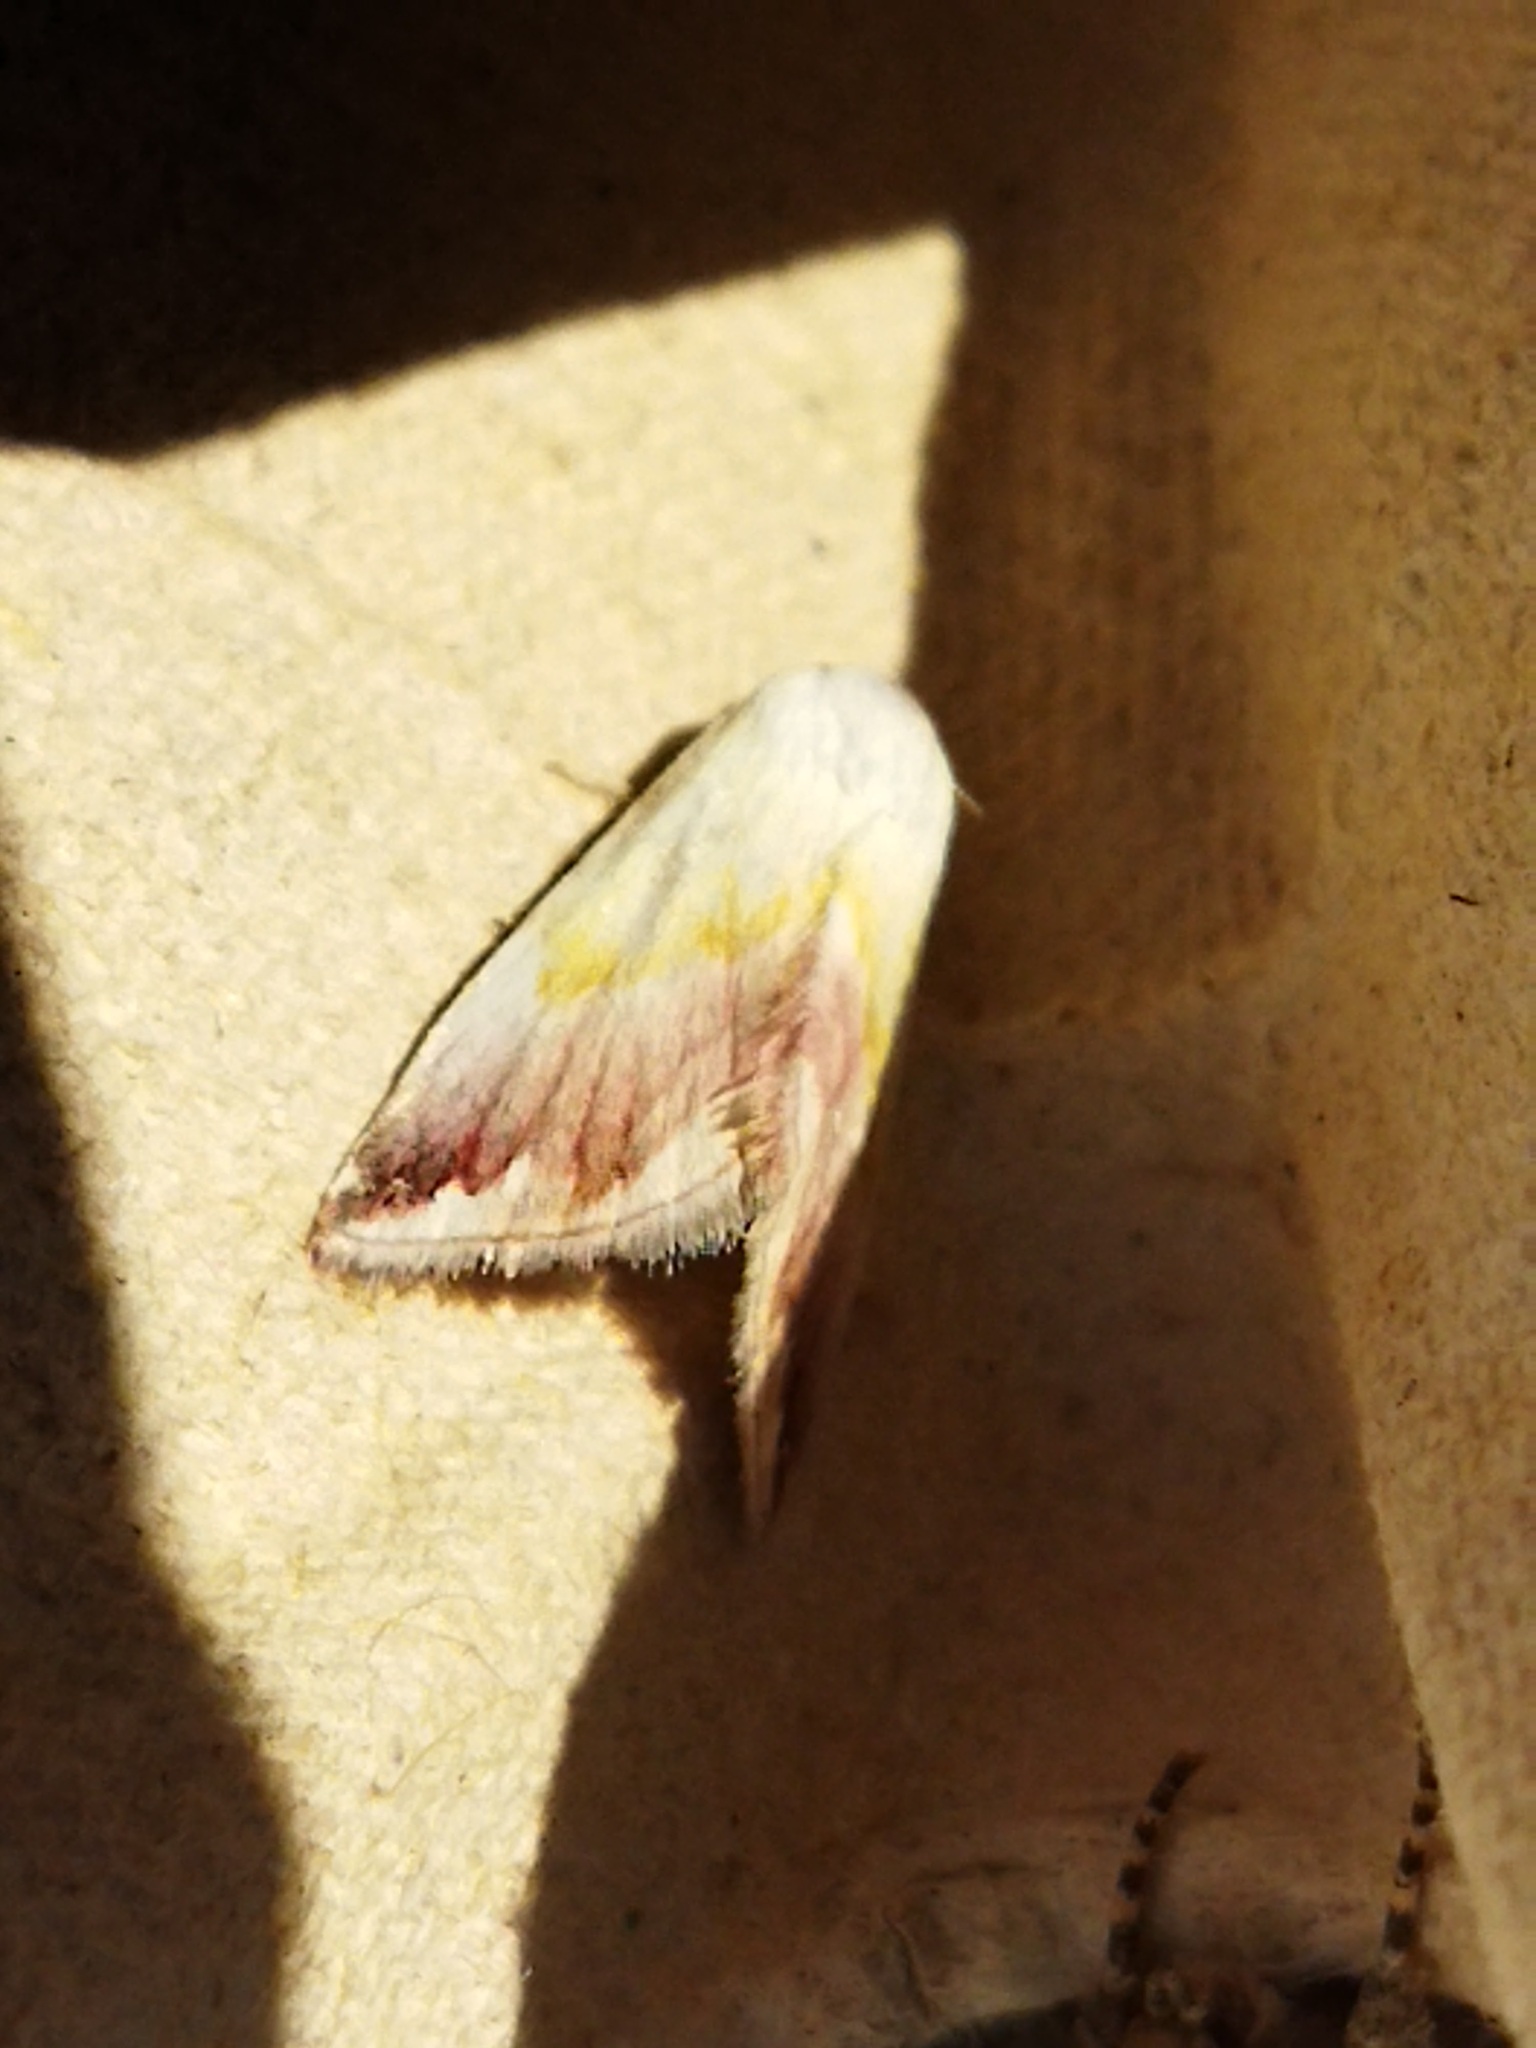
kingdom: Animalia
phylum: Arthropoda
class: Insecta
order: Lepidoptera
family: Noctuidae
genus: Eublemma
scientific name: Eublemma purpurina
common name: Beautiful marbled
